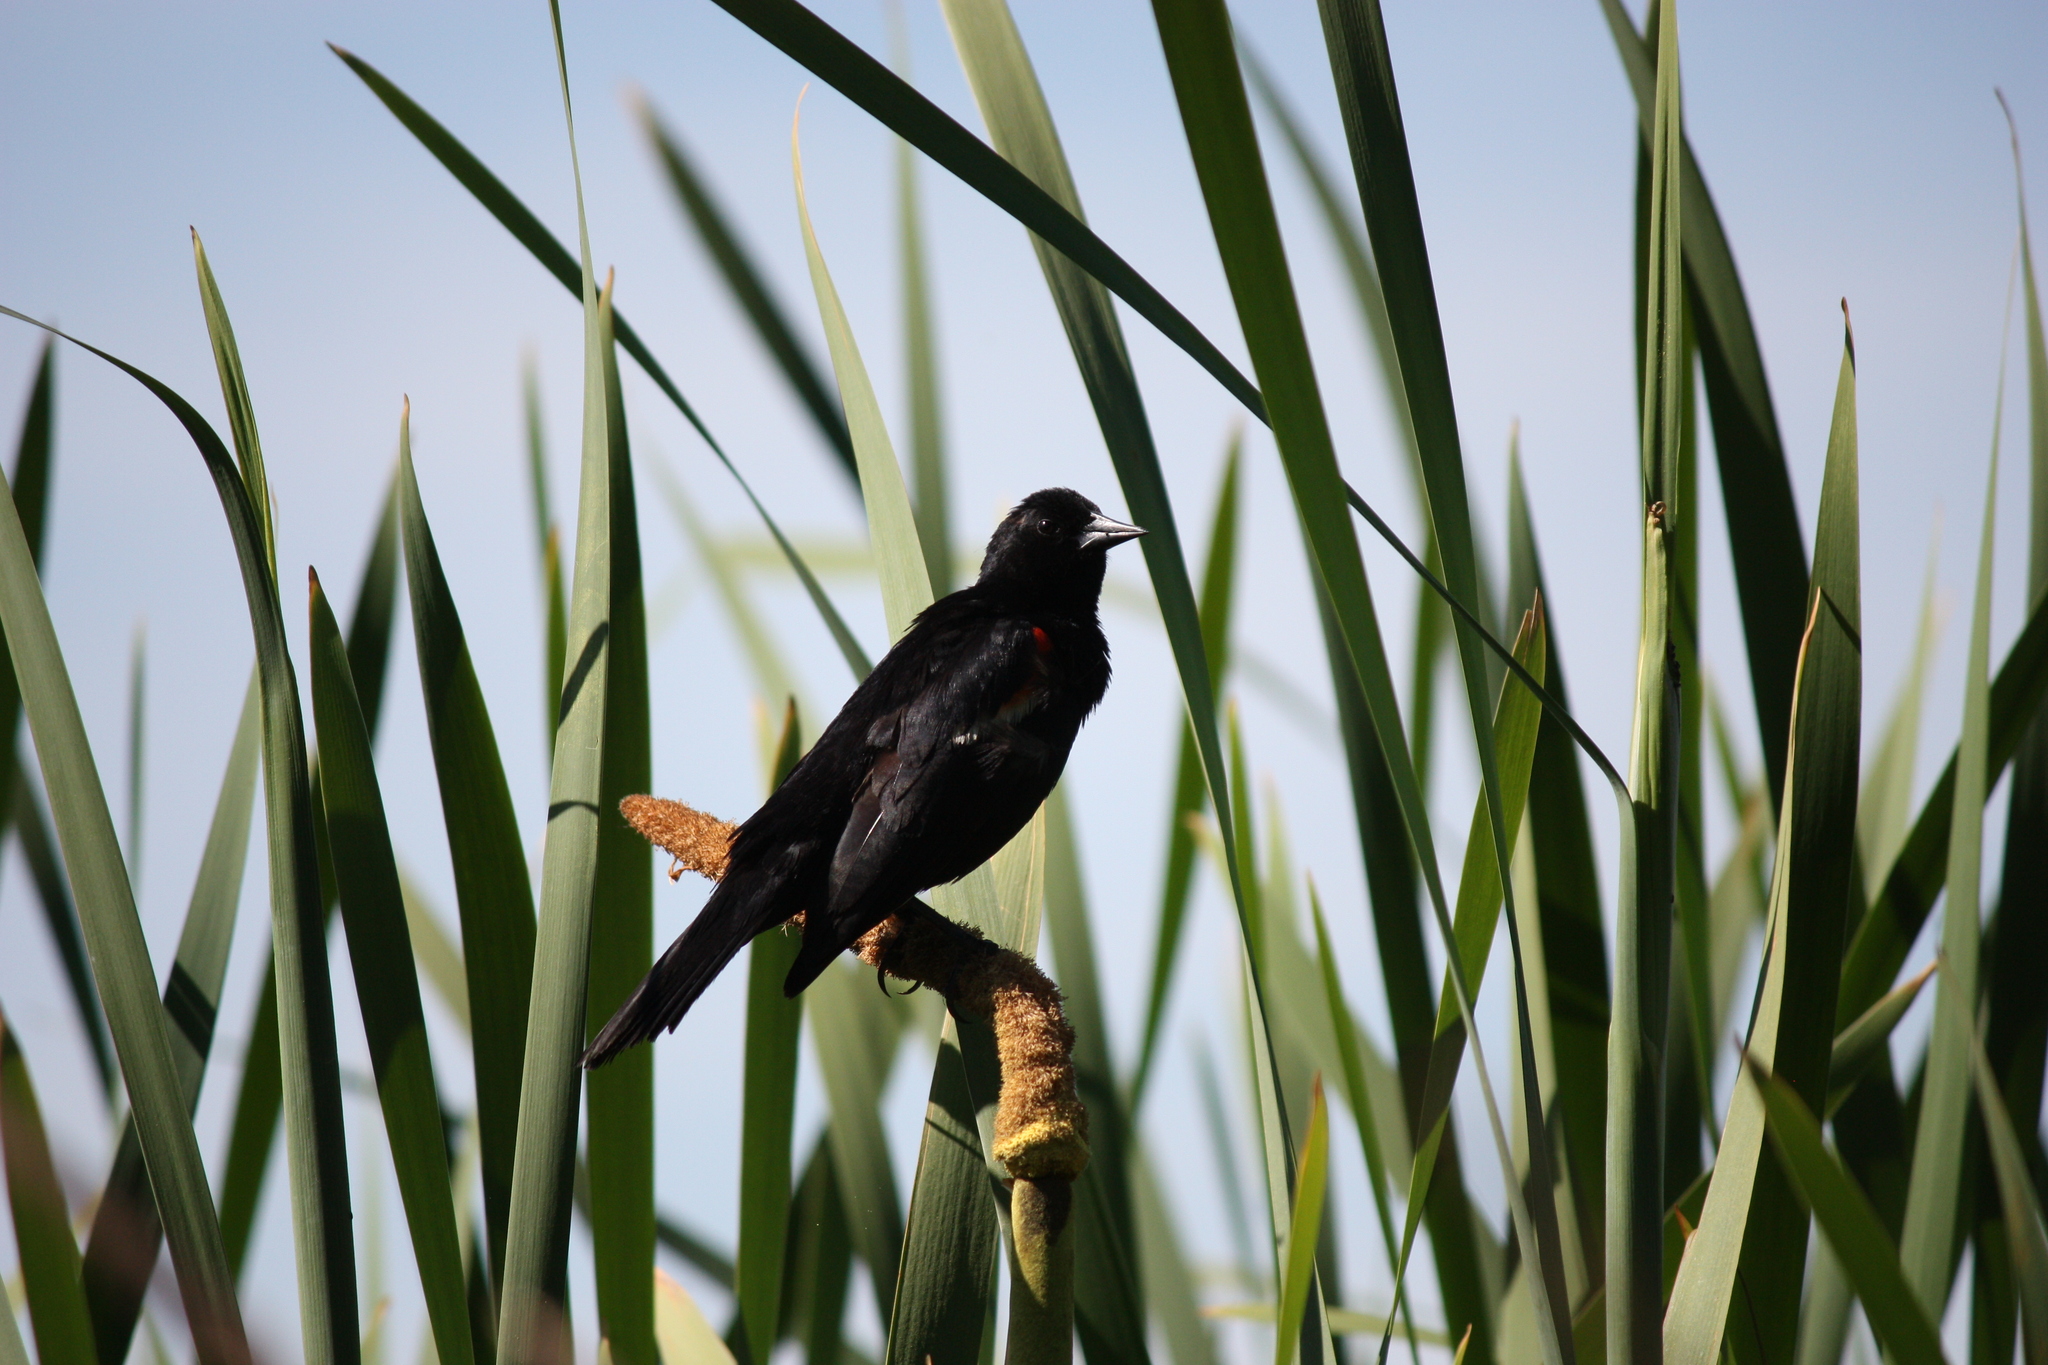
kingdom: Animalia
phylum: Chordata
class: Aves
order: Passeriformes
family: Icteridae
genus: Agelaius
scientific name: Agelaius phoeniceus
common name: Red-winged blackbird
